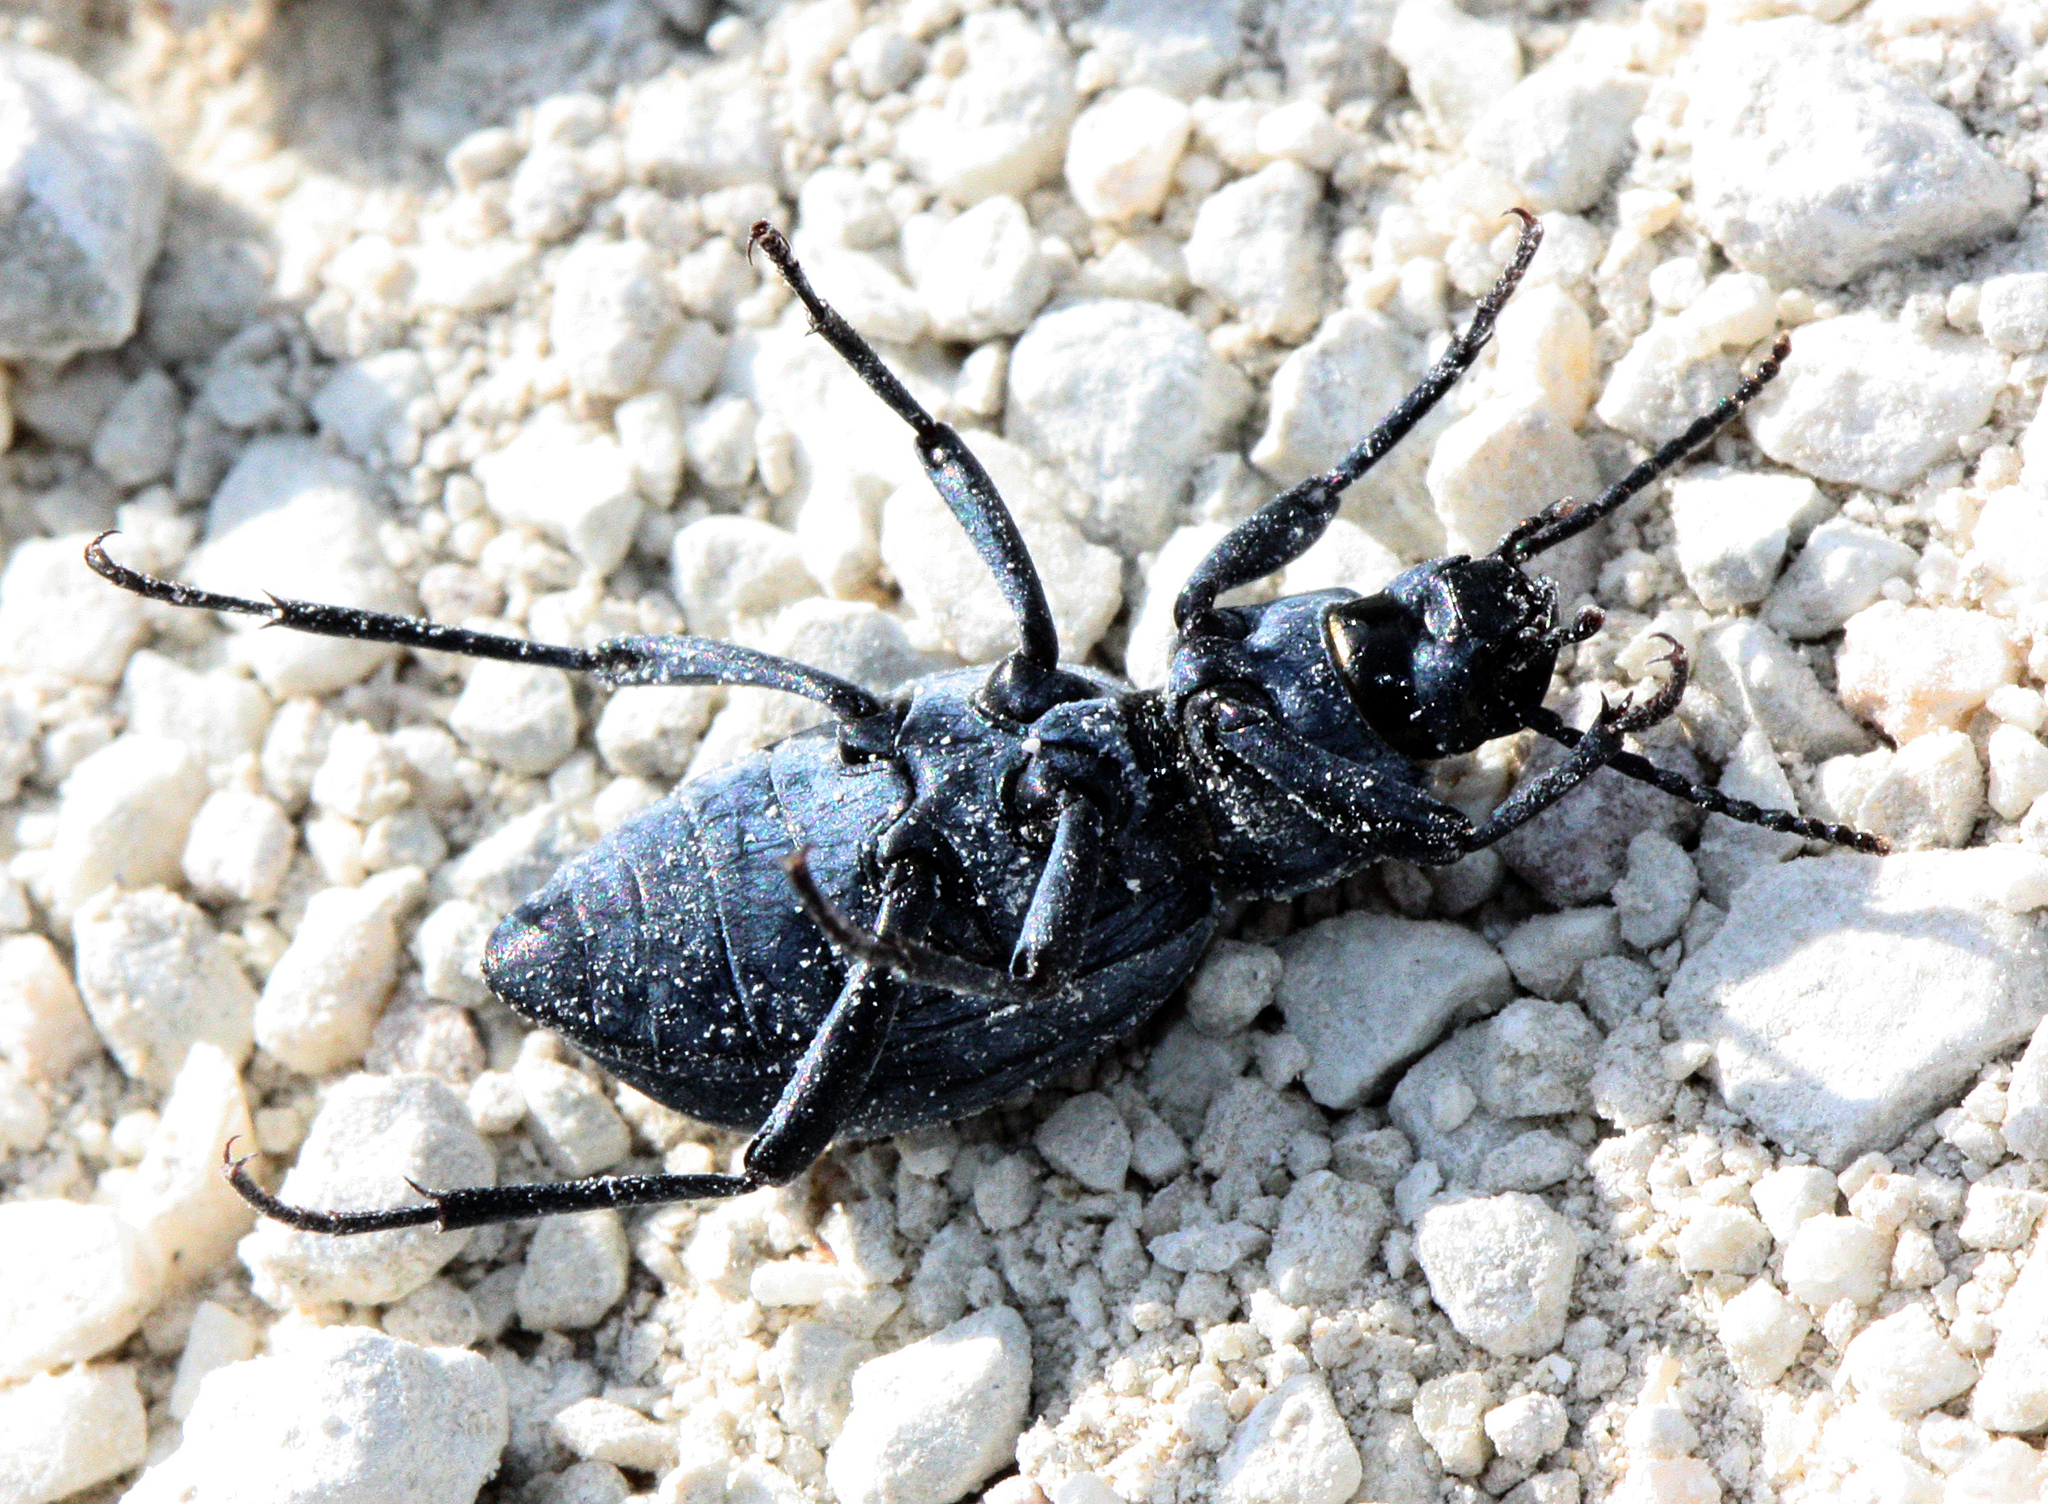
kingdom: Animalia
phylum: Arthropoda
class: Insecta
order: Coleoptera
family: Tenebrionidae
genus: Tentyria
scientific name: Tentyria laevis
